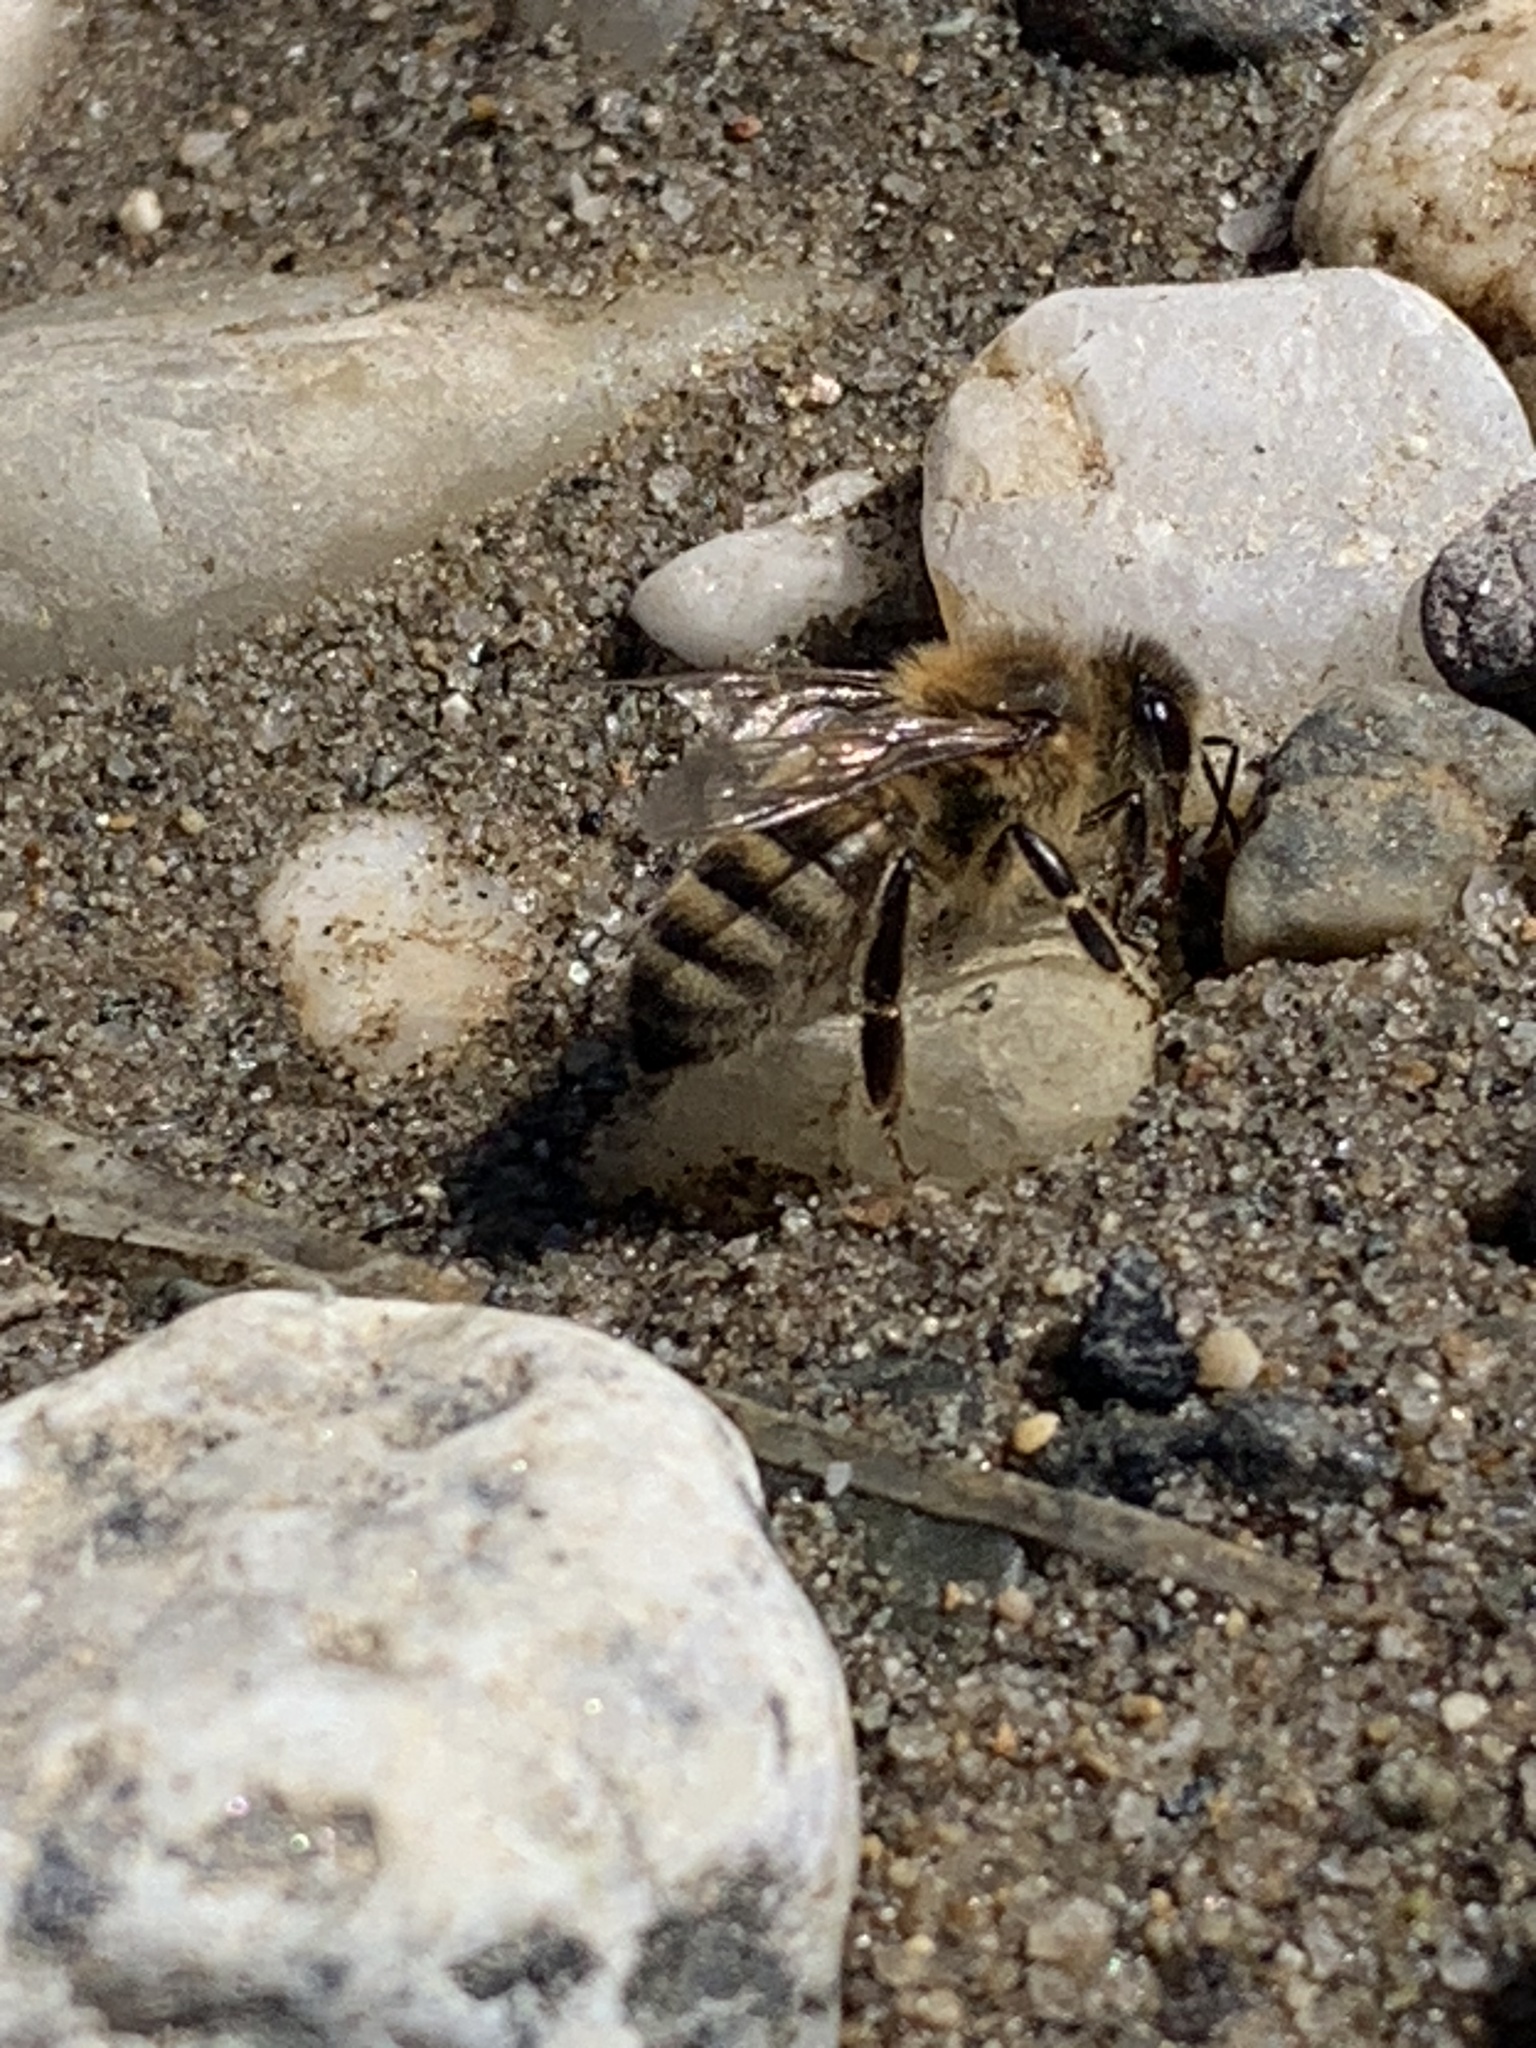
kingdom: Animalia
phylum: Arthropoda
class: Insecta
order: Hymenoptera
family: Apidae
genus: Apis
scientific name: Apis mellifera
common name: Honey bee
